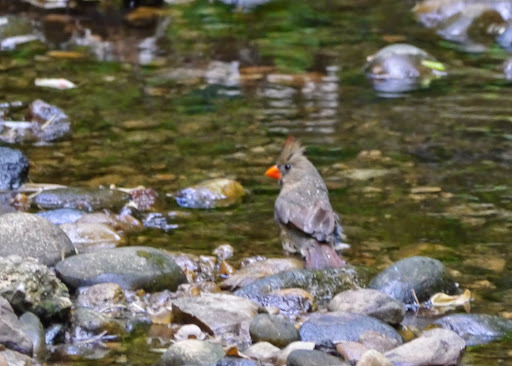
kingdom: Animalia
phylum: Chordata
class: Aves
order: Passeriformes
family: Cardinalidae
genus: Cardinalis
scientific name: Cardinalis cardinalis
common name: Northern cardinal
